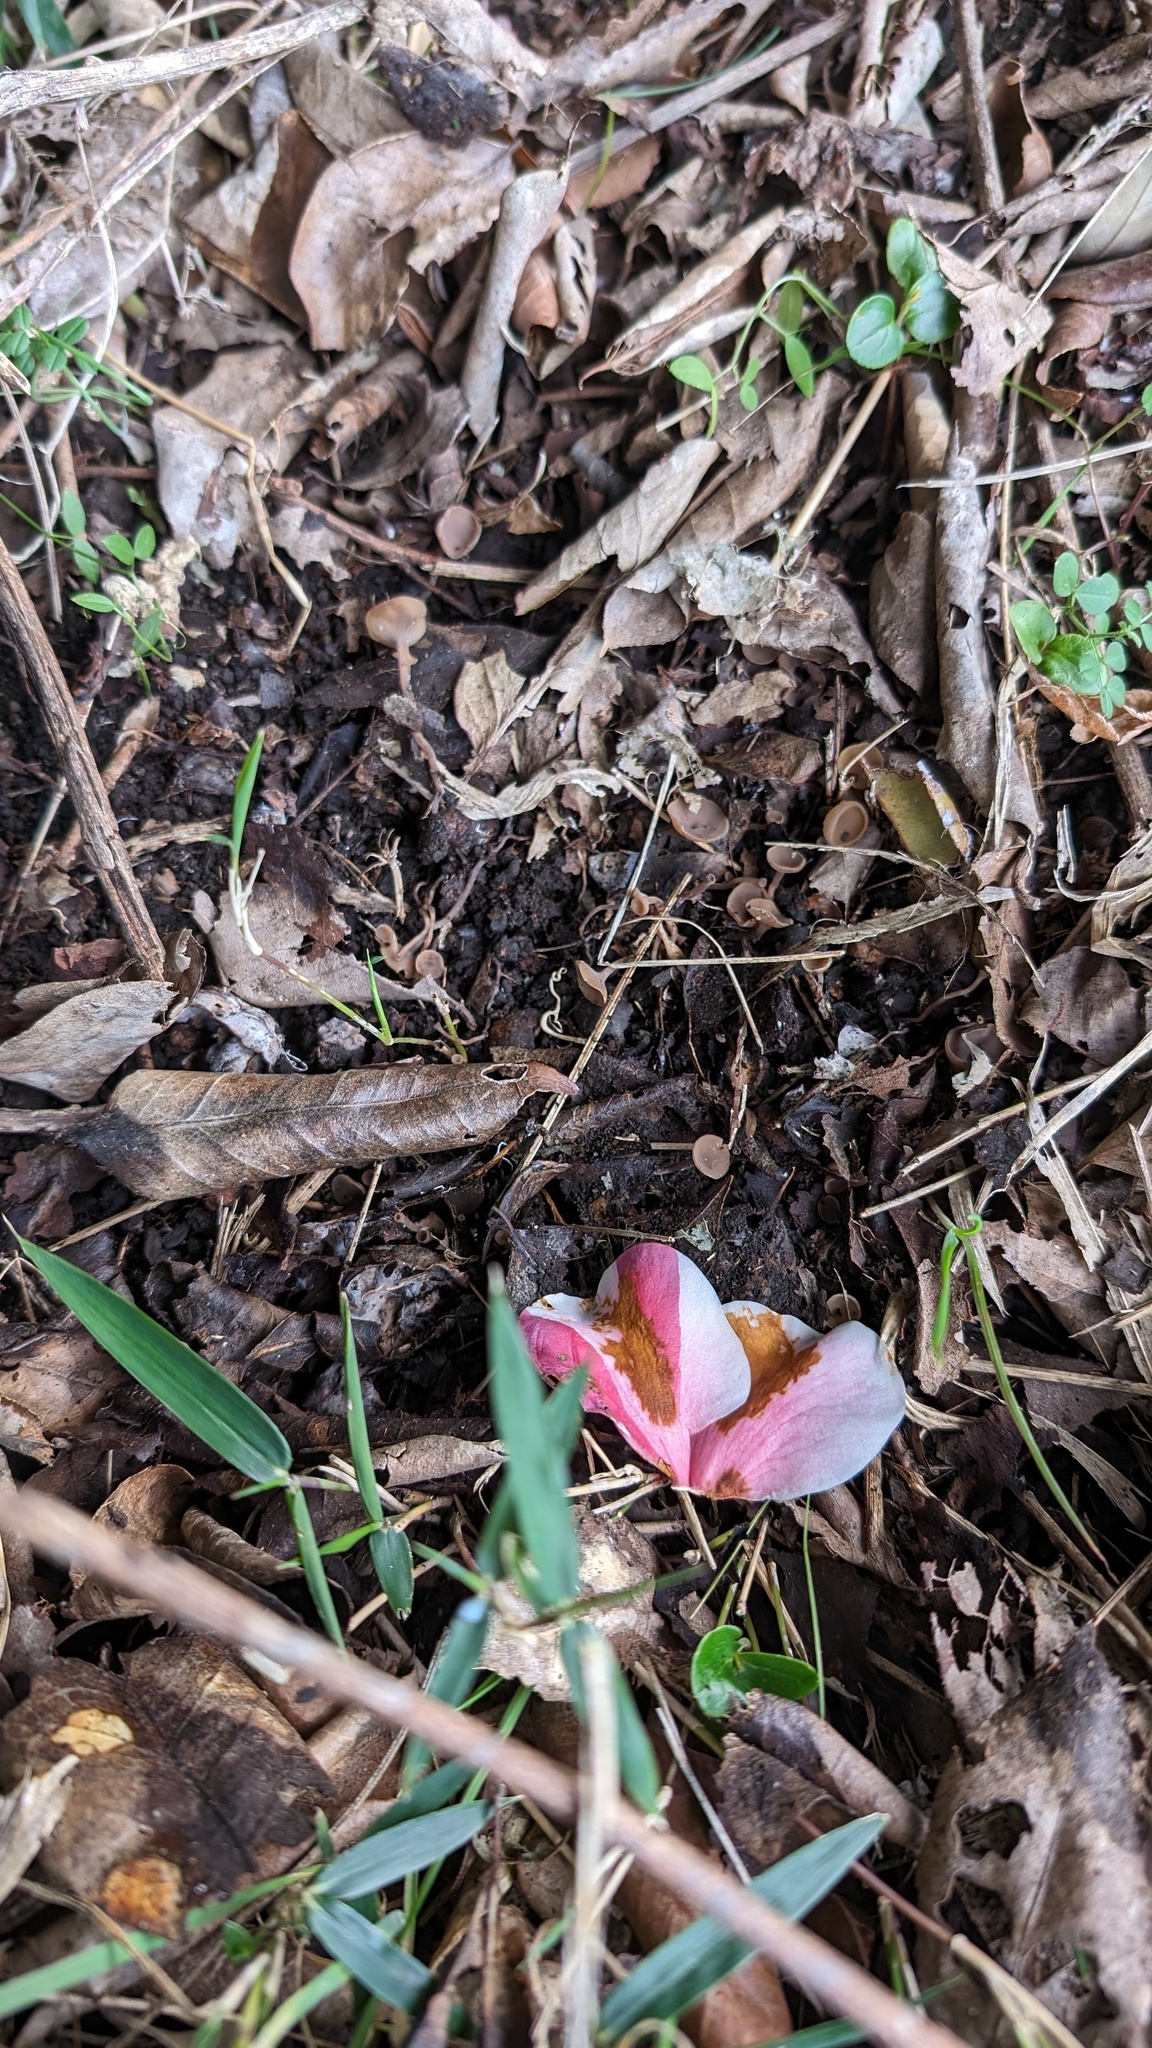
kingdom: Fungi
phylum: Ascomycota
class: Leotiomycetes
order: Helotiales
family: Sclerotiniaceae
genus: Ciborinia
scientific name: Ciborinia camelliae
